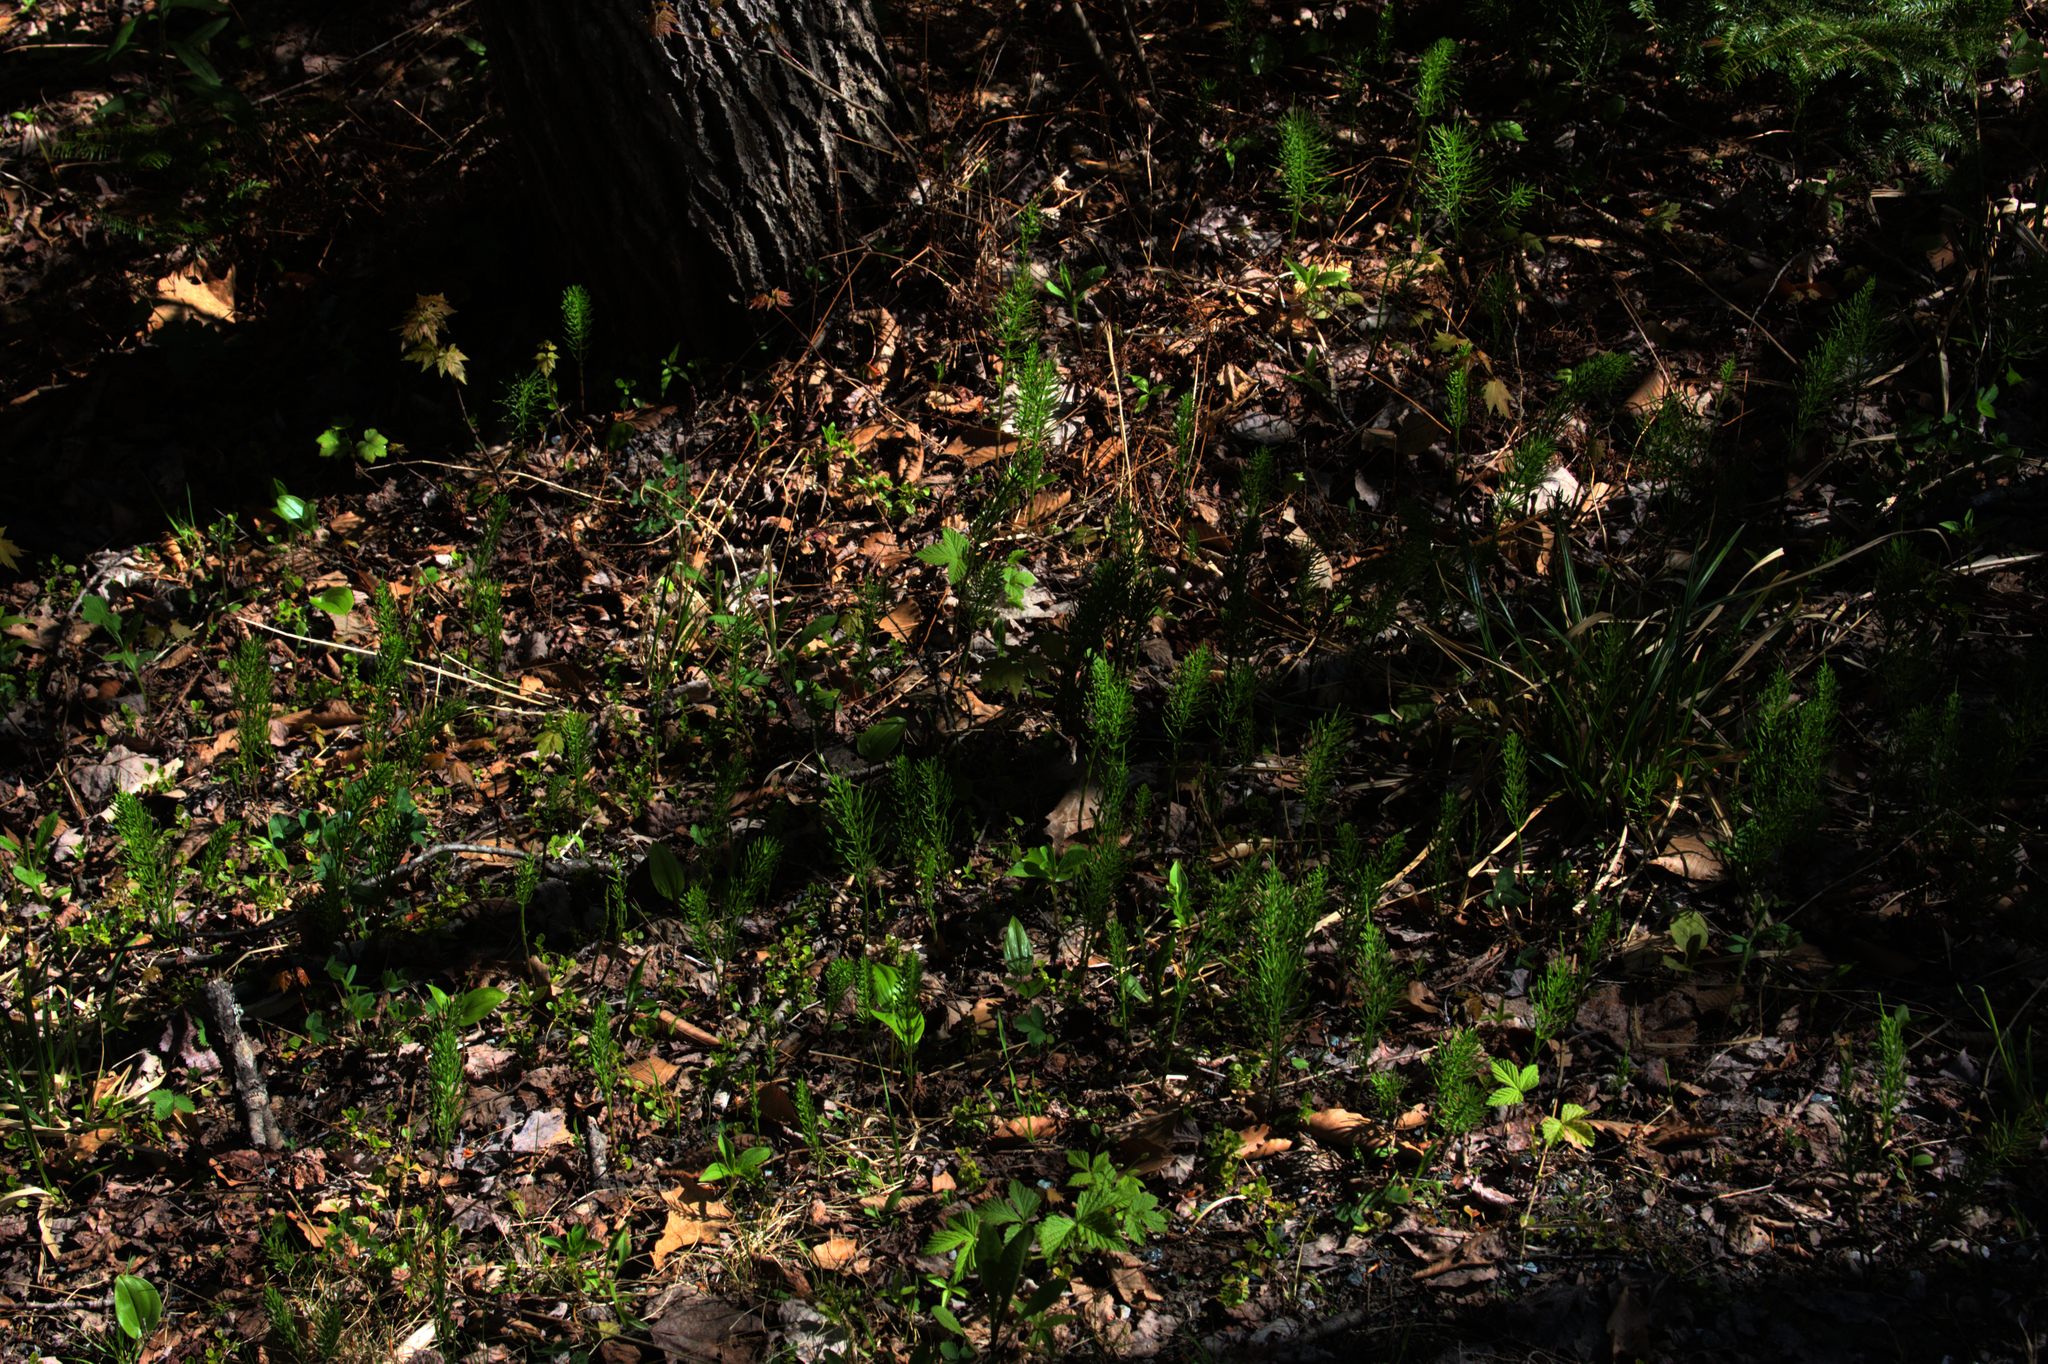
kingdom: Plantae
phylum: Tracheophyta
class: Polypodiopsida
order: Equisetales
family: Equisetaceae
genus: Equisetum
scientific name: Equisetum arvense
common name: Field horsetail
